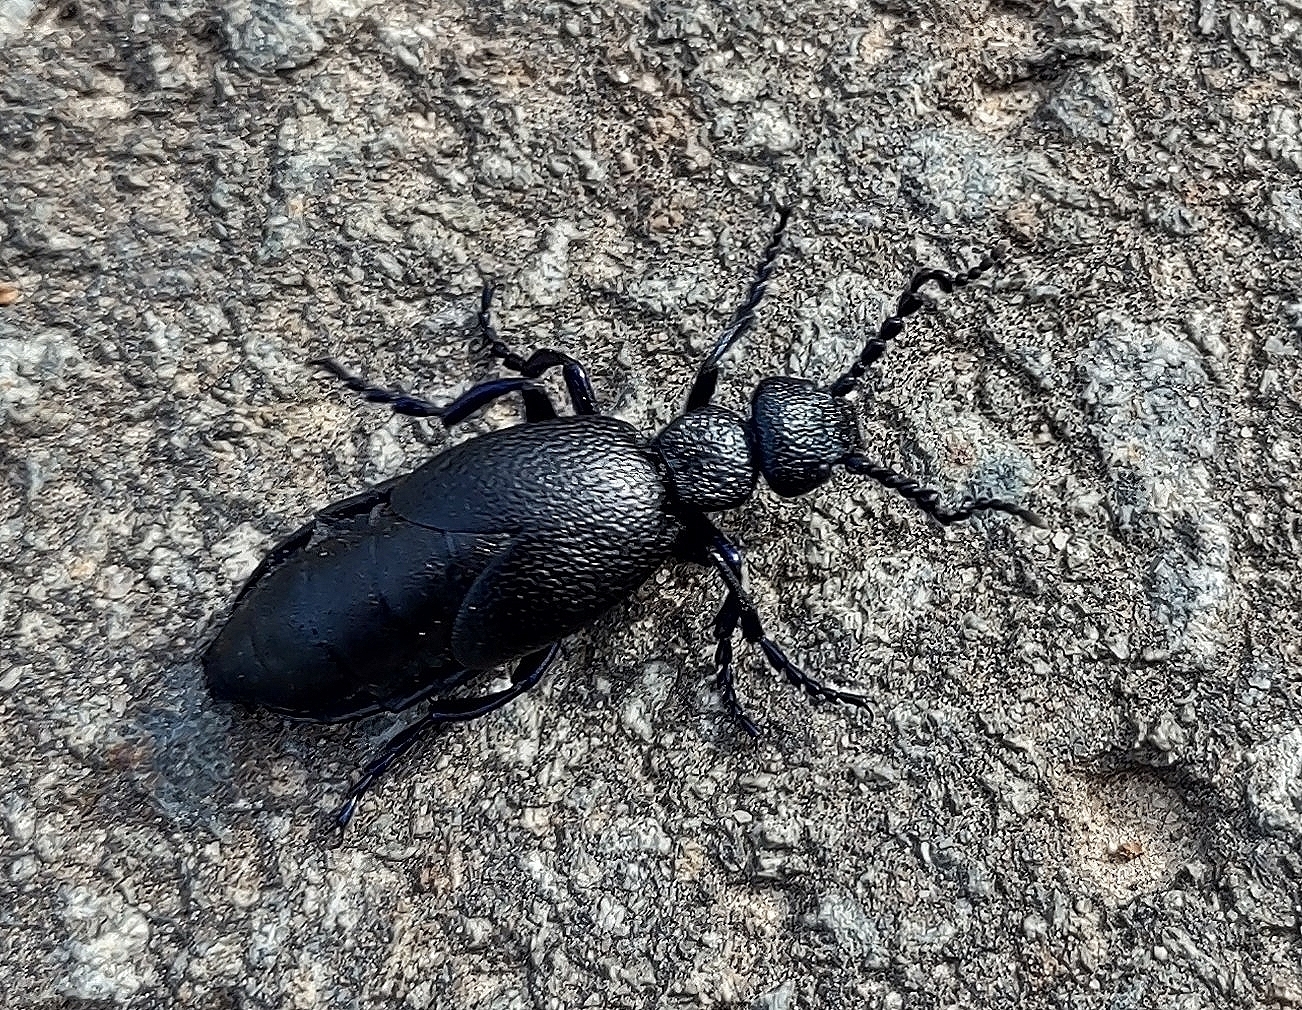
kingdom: Animalia
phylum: Arthropoda
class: Insecta
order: Coleoptera
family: Meloidae
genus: Meloe
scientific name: Meloe proscarabaeus
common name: Black oil-beetle
